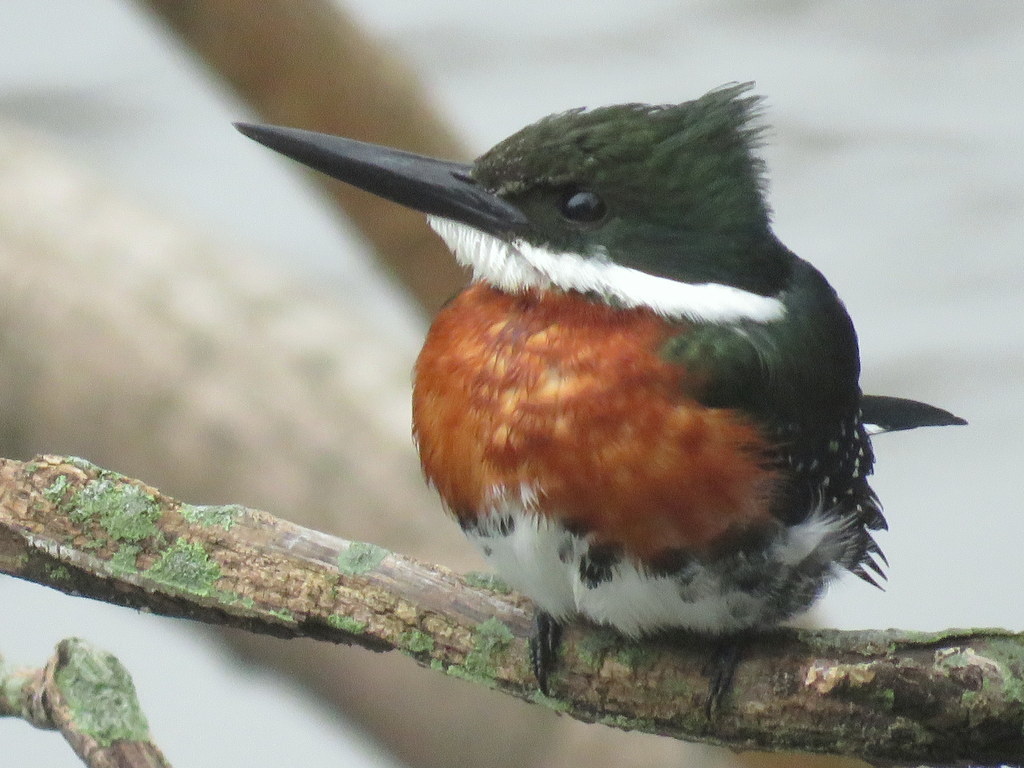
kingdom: Animalia
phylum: Chordata
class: Aves
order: Coraciiformes
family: Alcedinidae
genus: Chloroceryle
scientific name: Chloroceryle americana
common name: Green kingfisher
